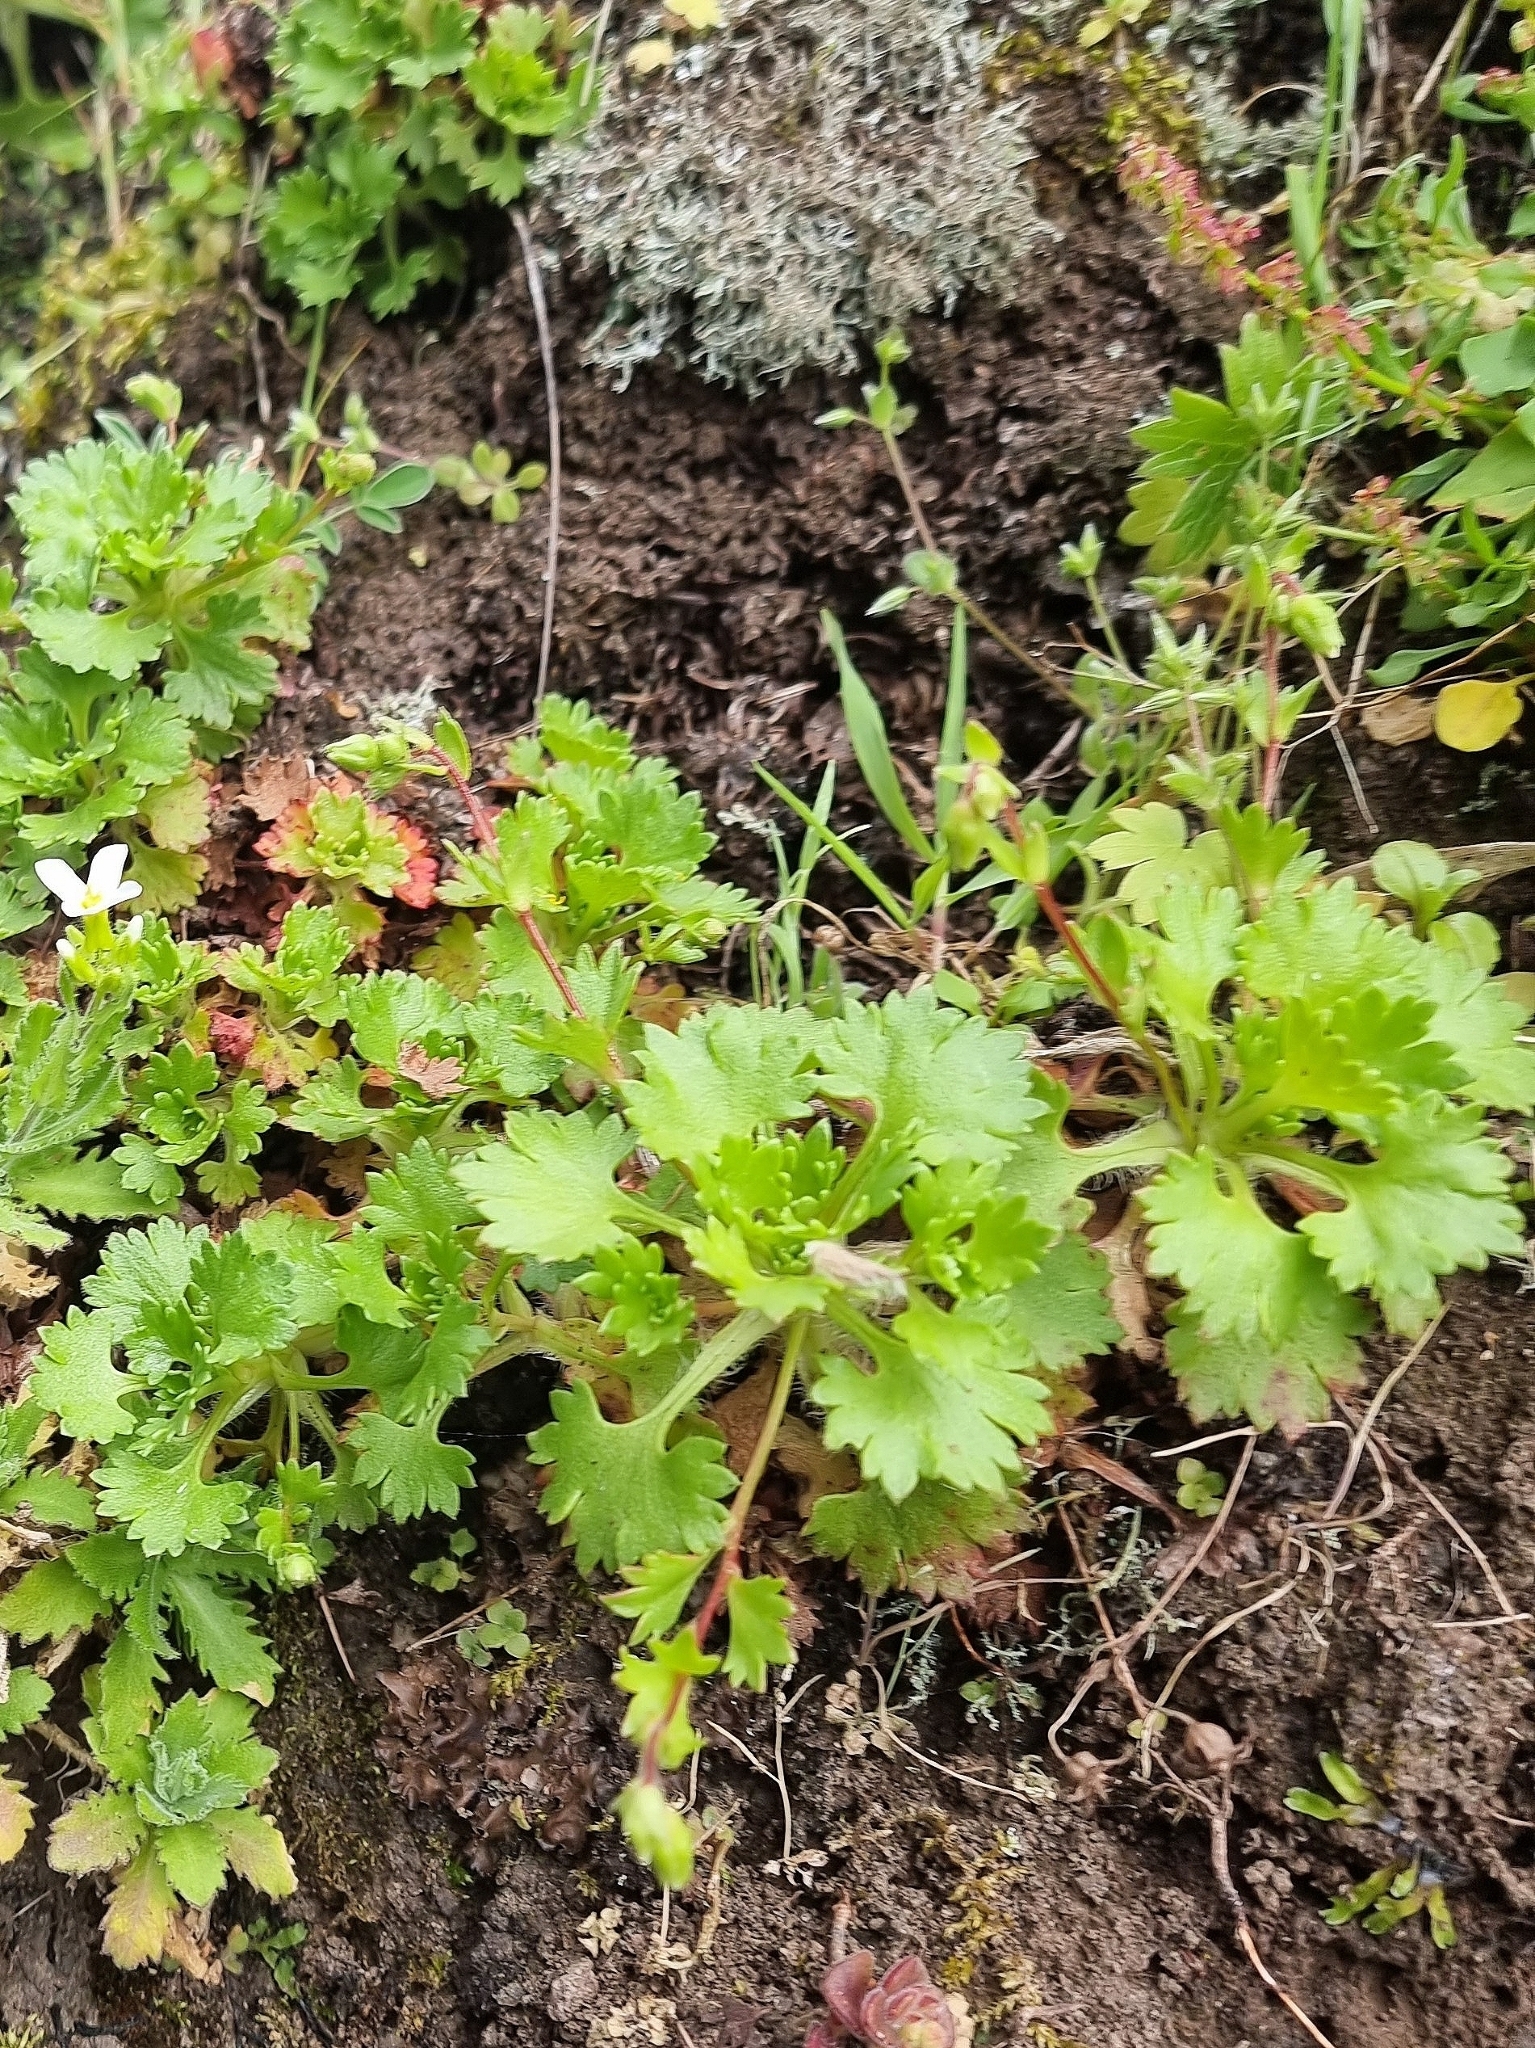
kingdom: Plantae
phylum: Tracheophyta
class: Magnoliopsida
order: Saxifragales
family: Saxifragaceae
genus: Saxifraga
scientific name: Saxifraga maderensis
